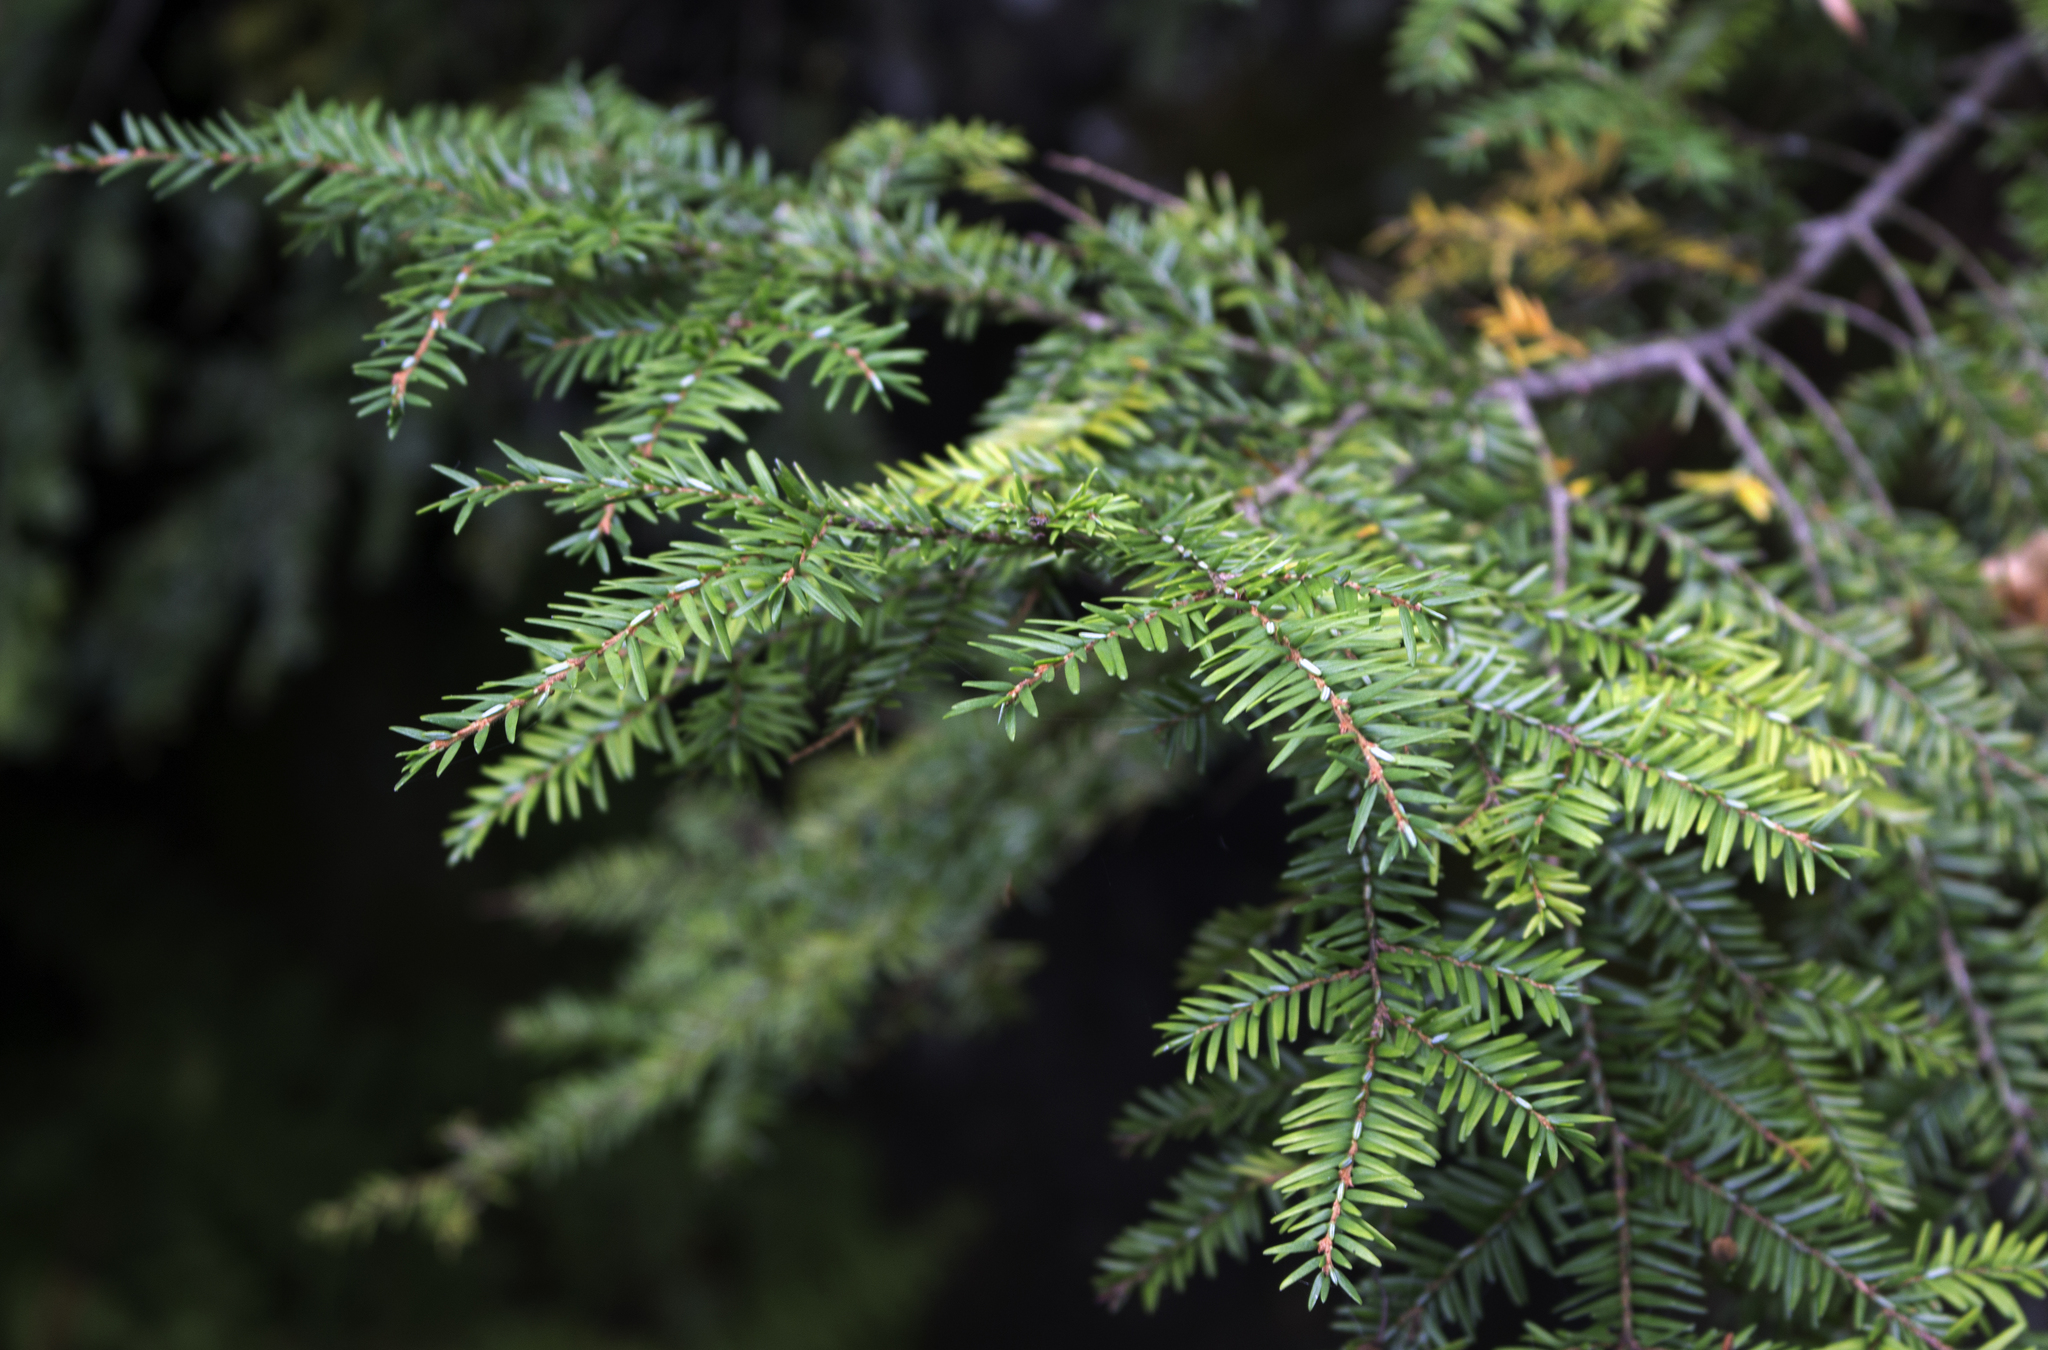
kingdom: Plantae
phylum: Tracheophyta
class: Pinopsida
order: Pinales
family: Pinaceae
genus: Tsuga
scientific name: Tsuga canadensis
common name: Eastern hemlock
